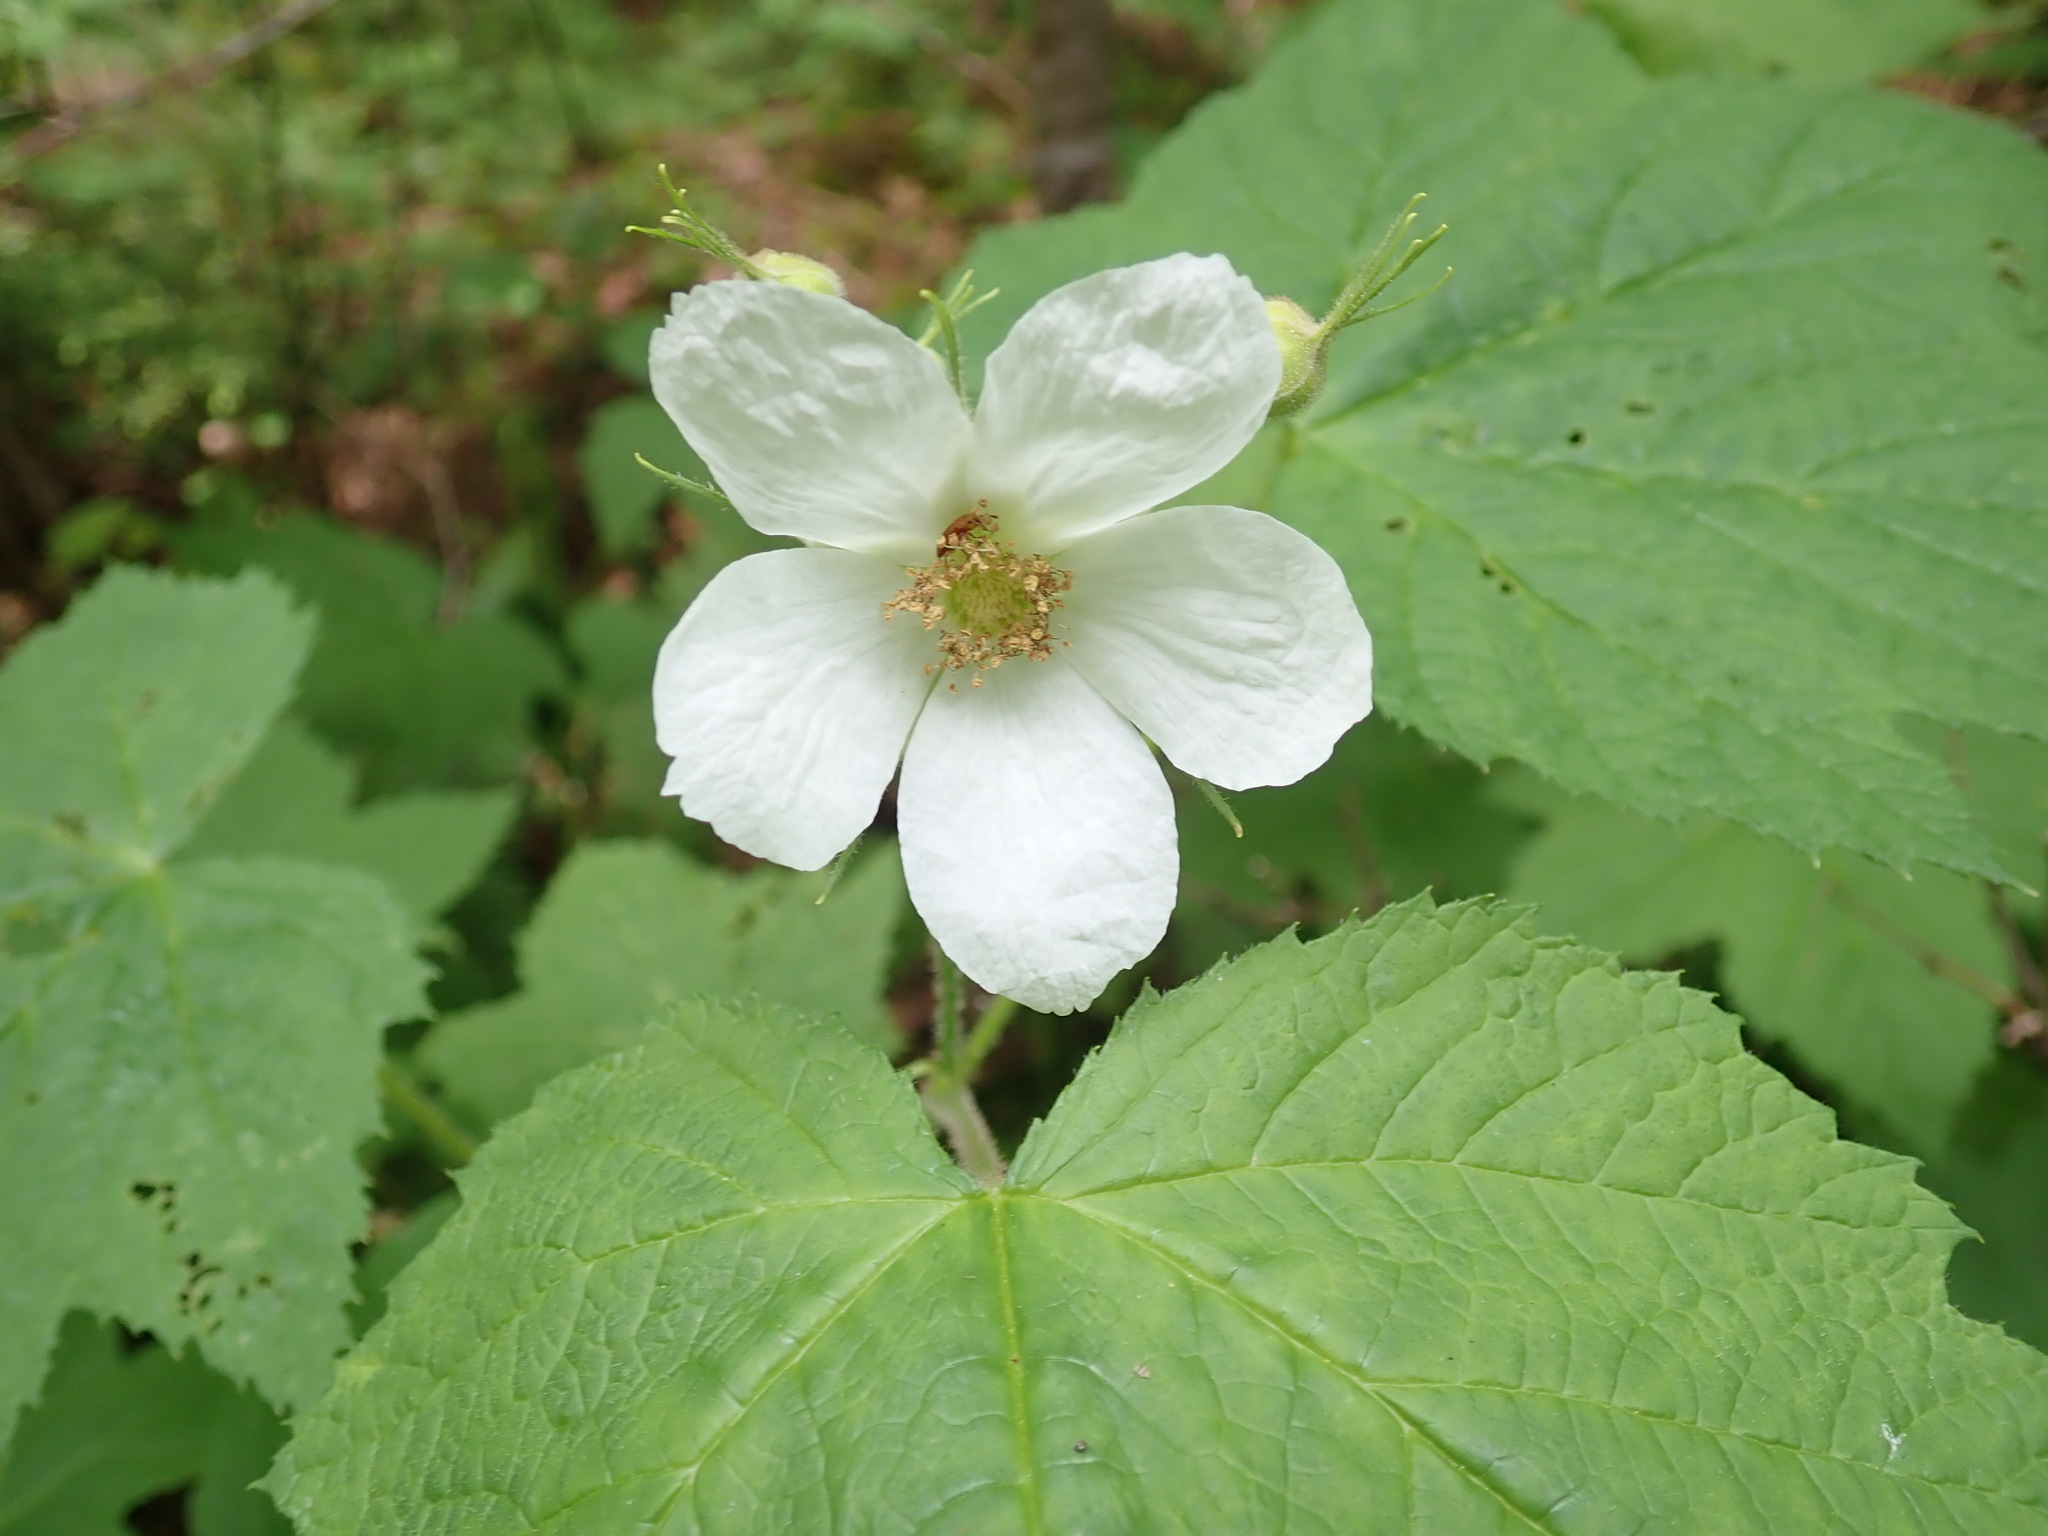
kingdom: Plantae
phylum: Tracheophyta
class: Magnoliopsida
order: Rosales
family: Rosaceae
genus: Rubus
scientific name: Rubus parviflorus
